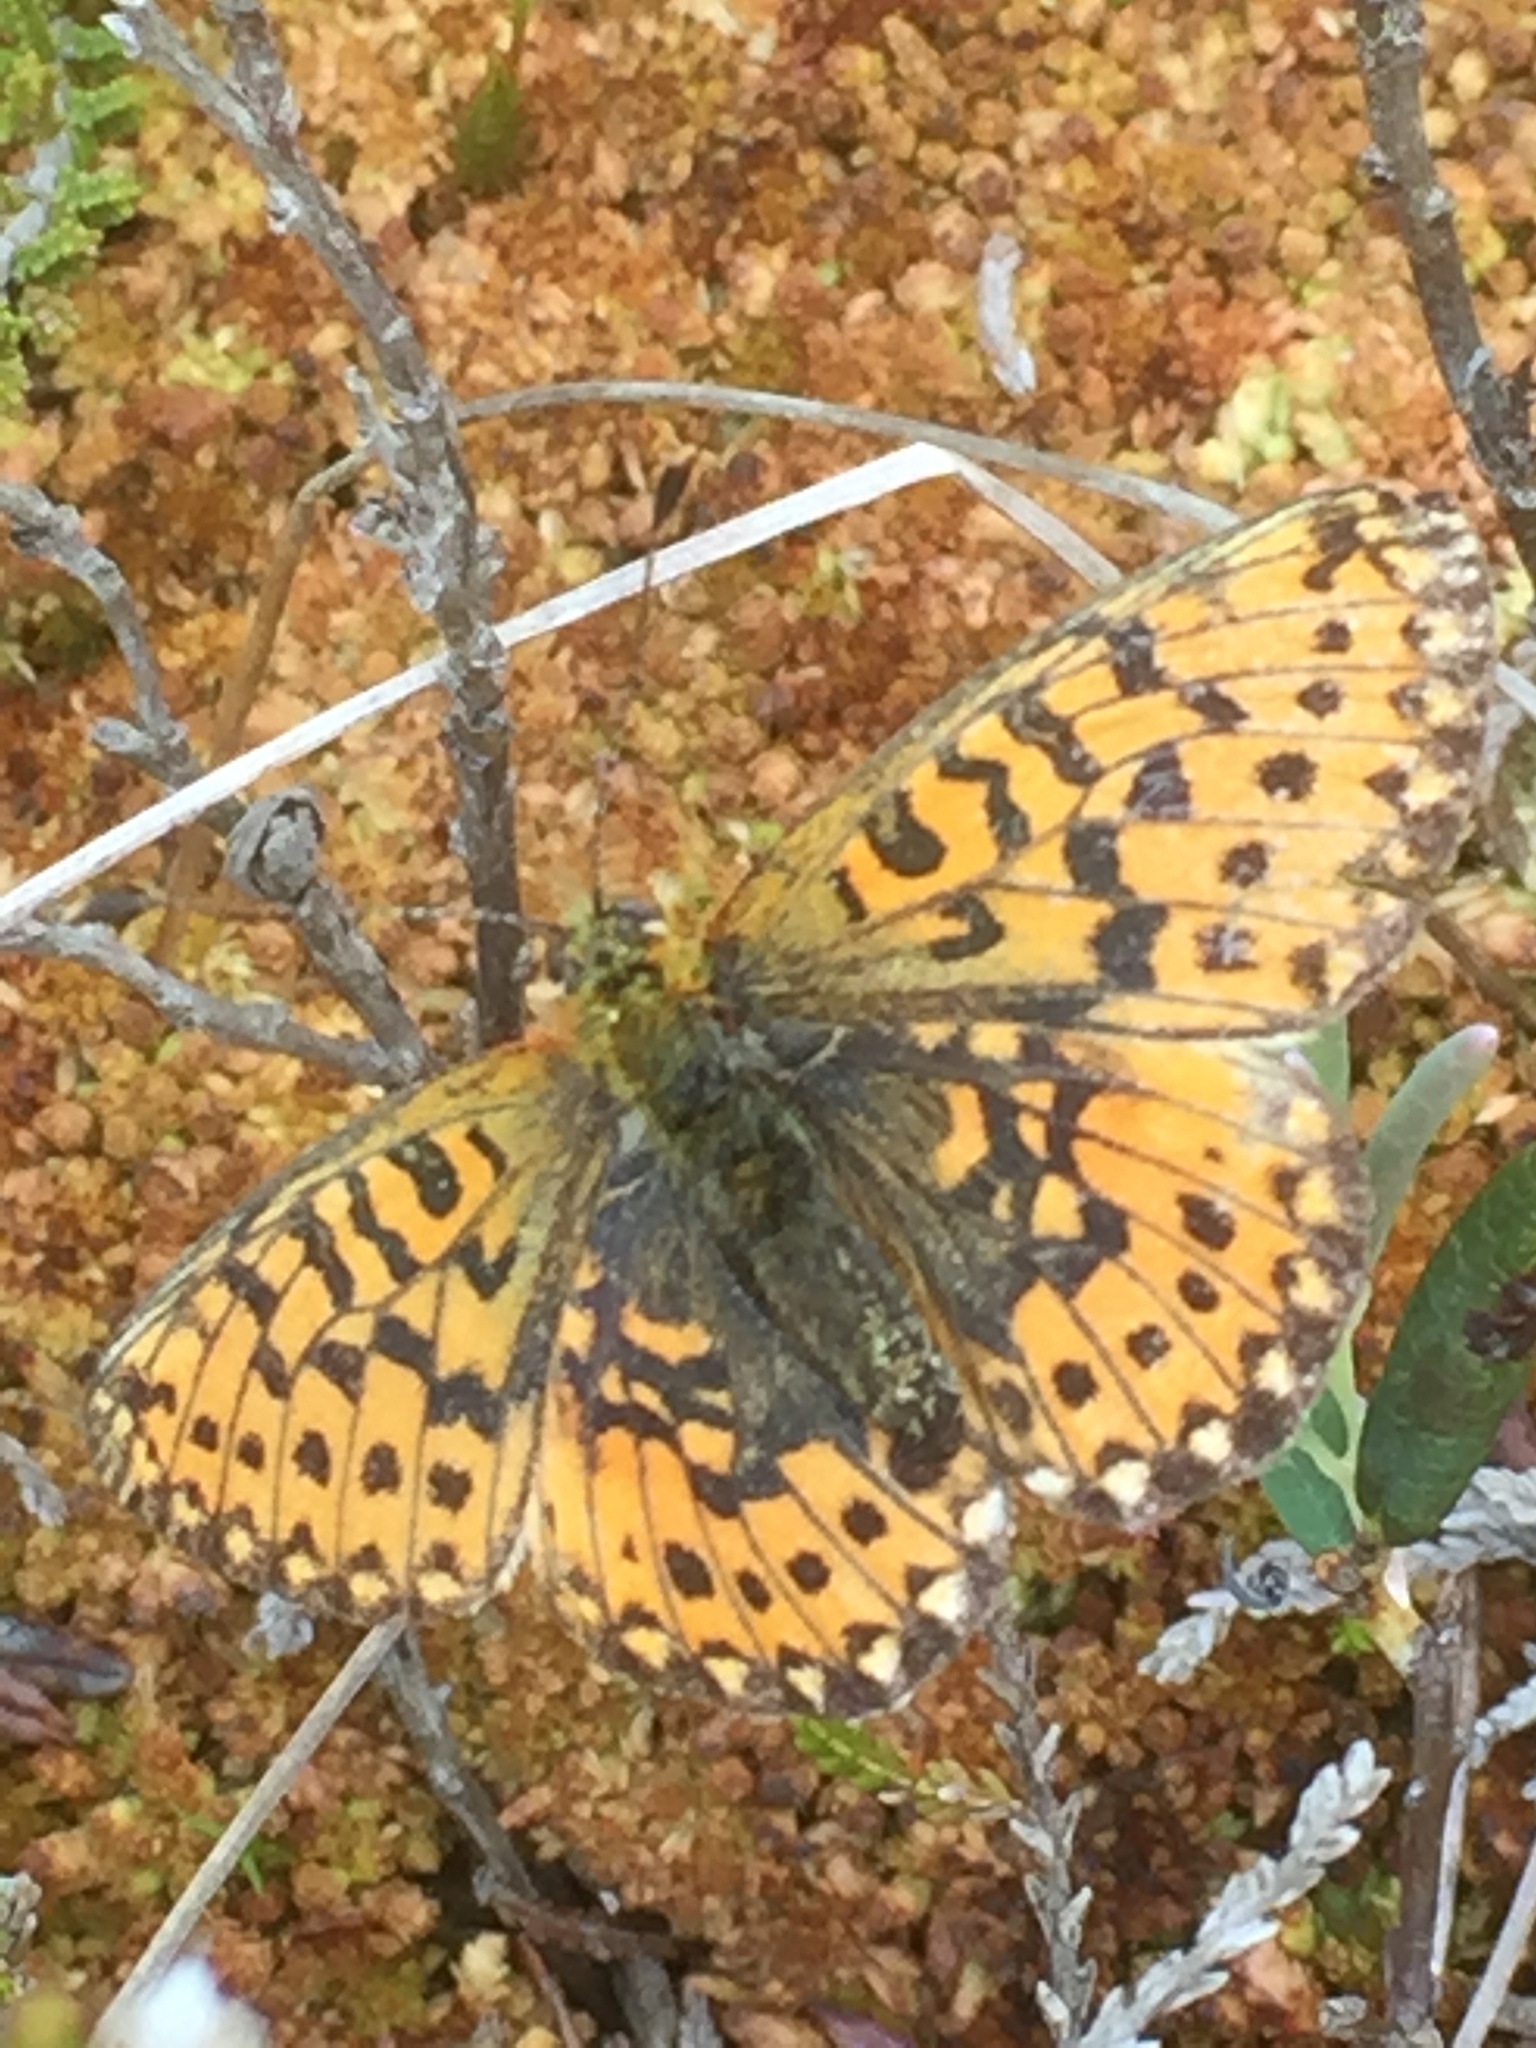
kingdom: Animalia
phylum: Arthropoda
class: Insecta
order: Lepidoptera
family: Nymphalidae
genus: Clossiana
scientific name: Clossiana euphrosyne
